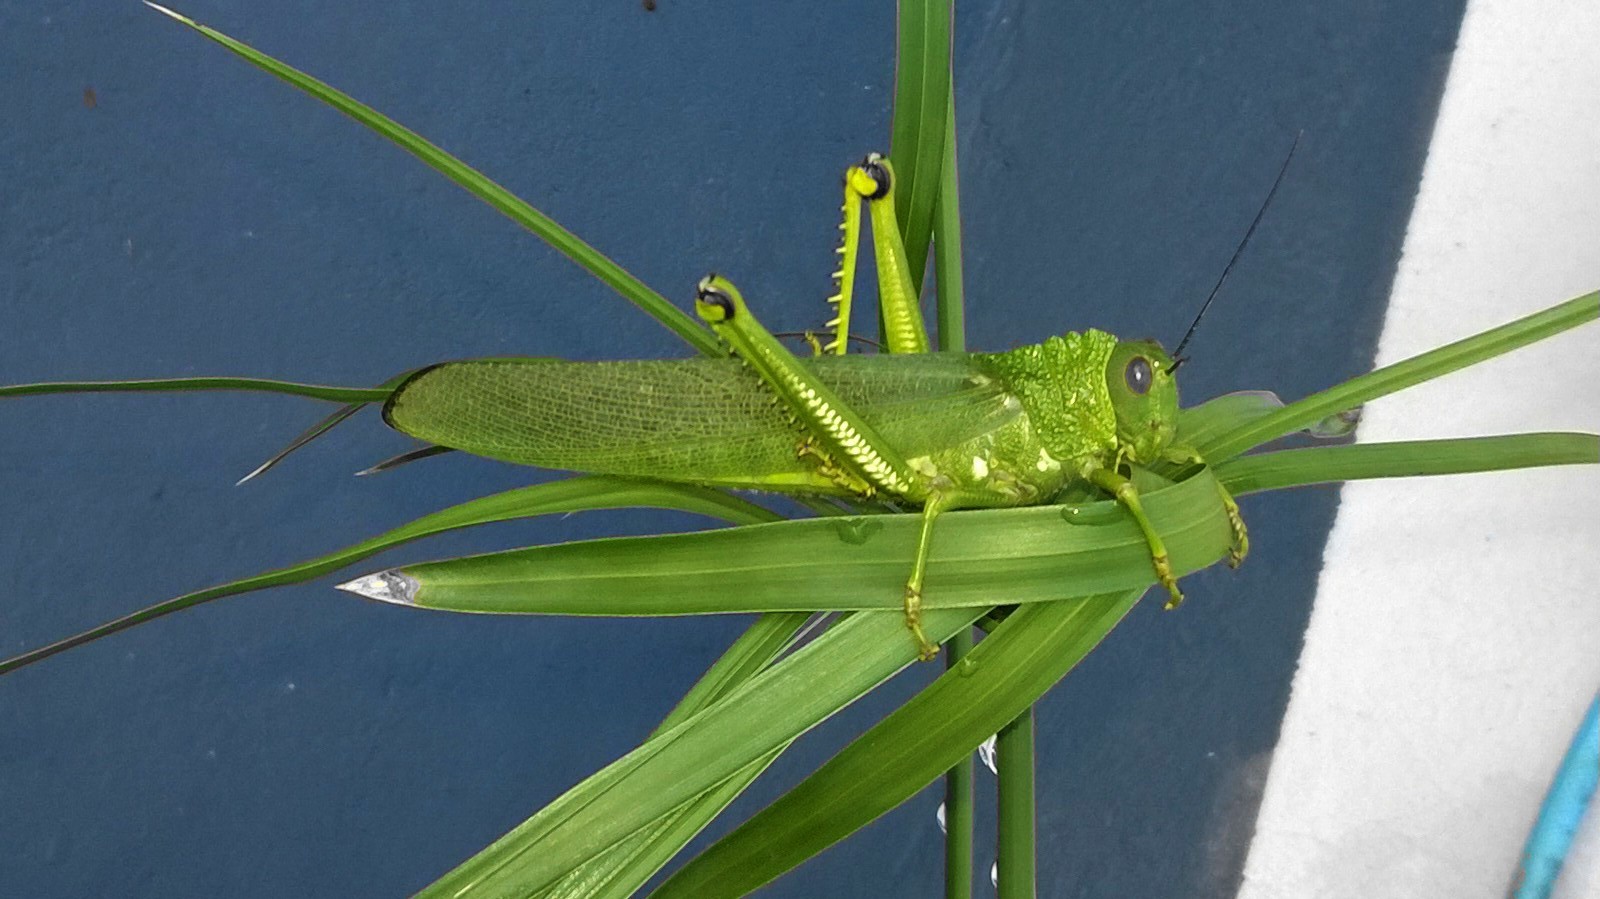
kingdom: Animalia
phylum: Arthropoda
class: Insecta
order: Orthoptera
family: Romaleidae
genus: Tropidacris
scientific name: Tropidacris cristata
